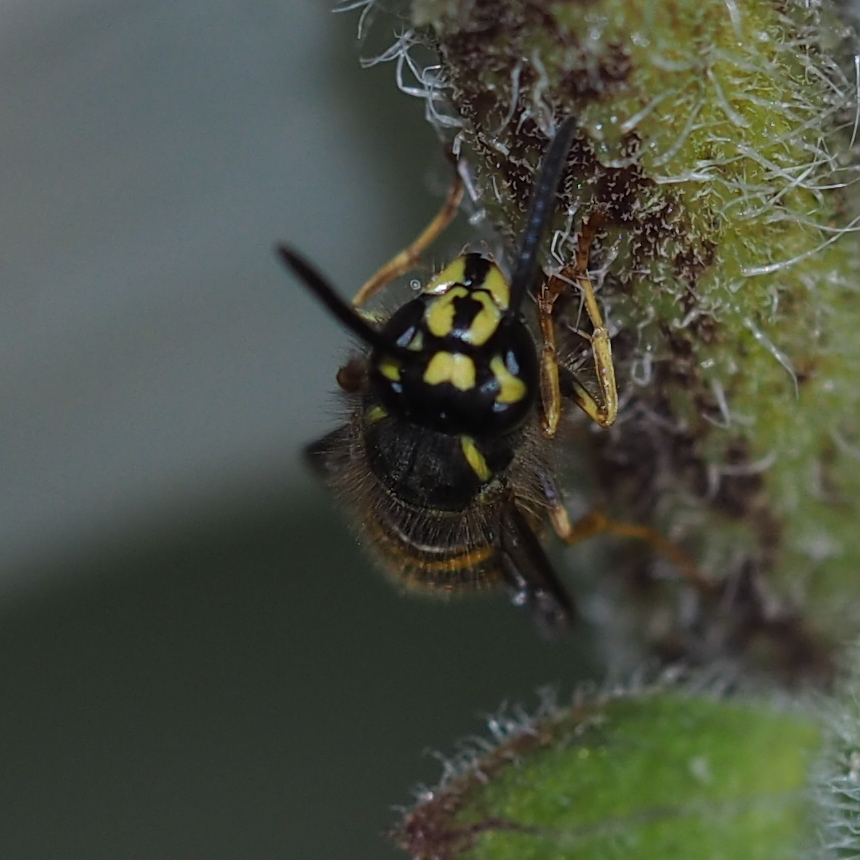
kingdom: Animalia
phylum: Arthropoda
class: Insecta
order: Hymenoptera
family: Vespidae
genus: Vespula
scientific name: Vespula vulgaris
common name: Common wasp
